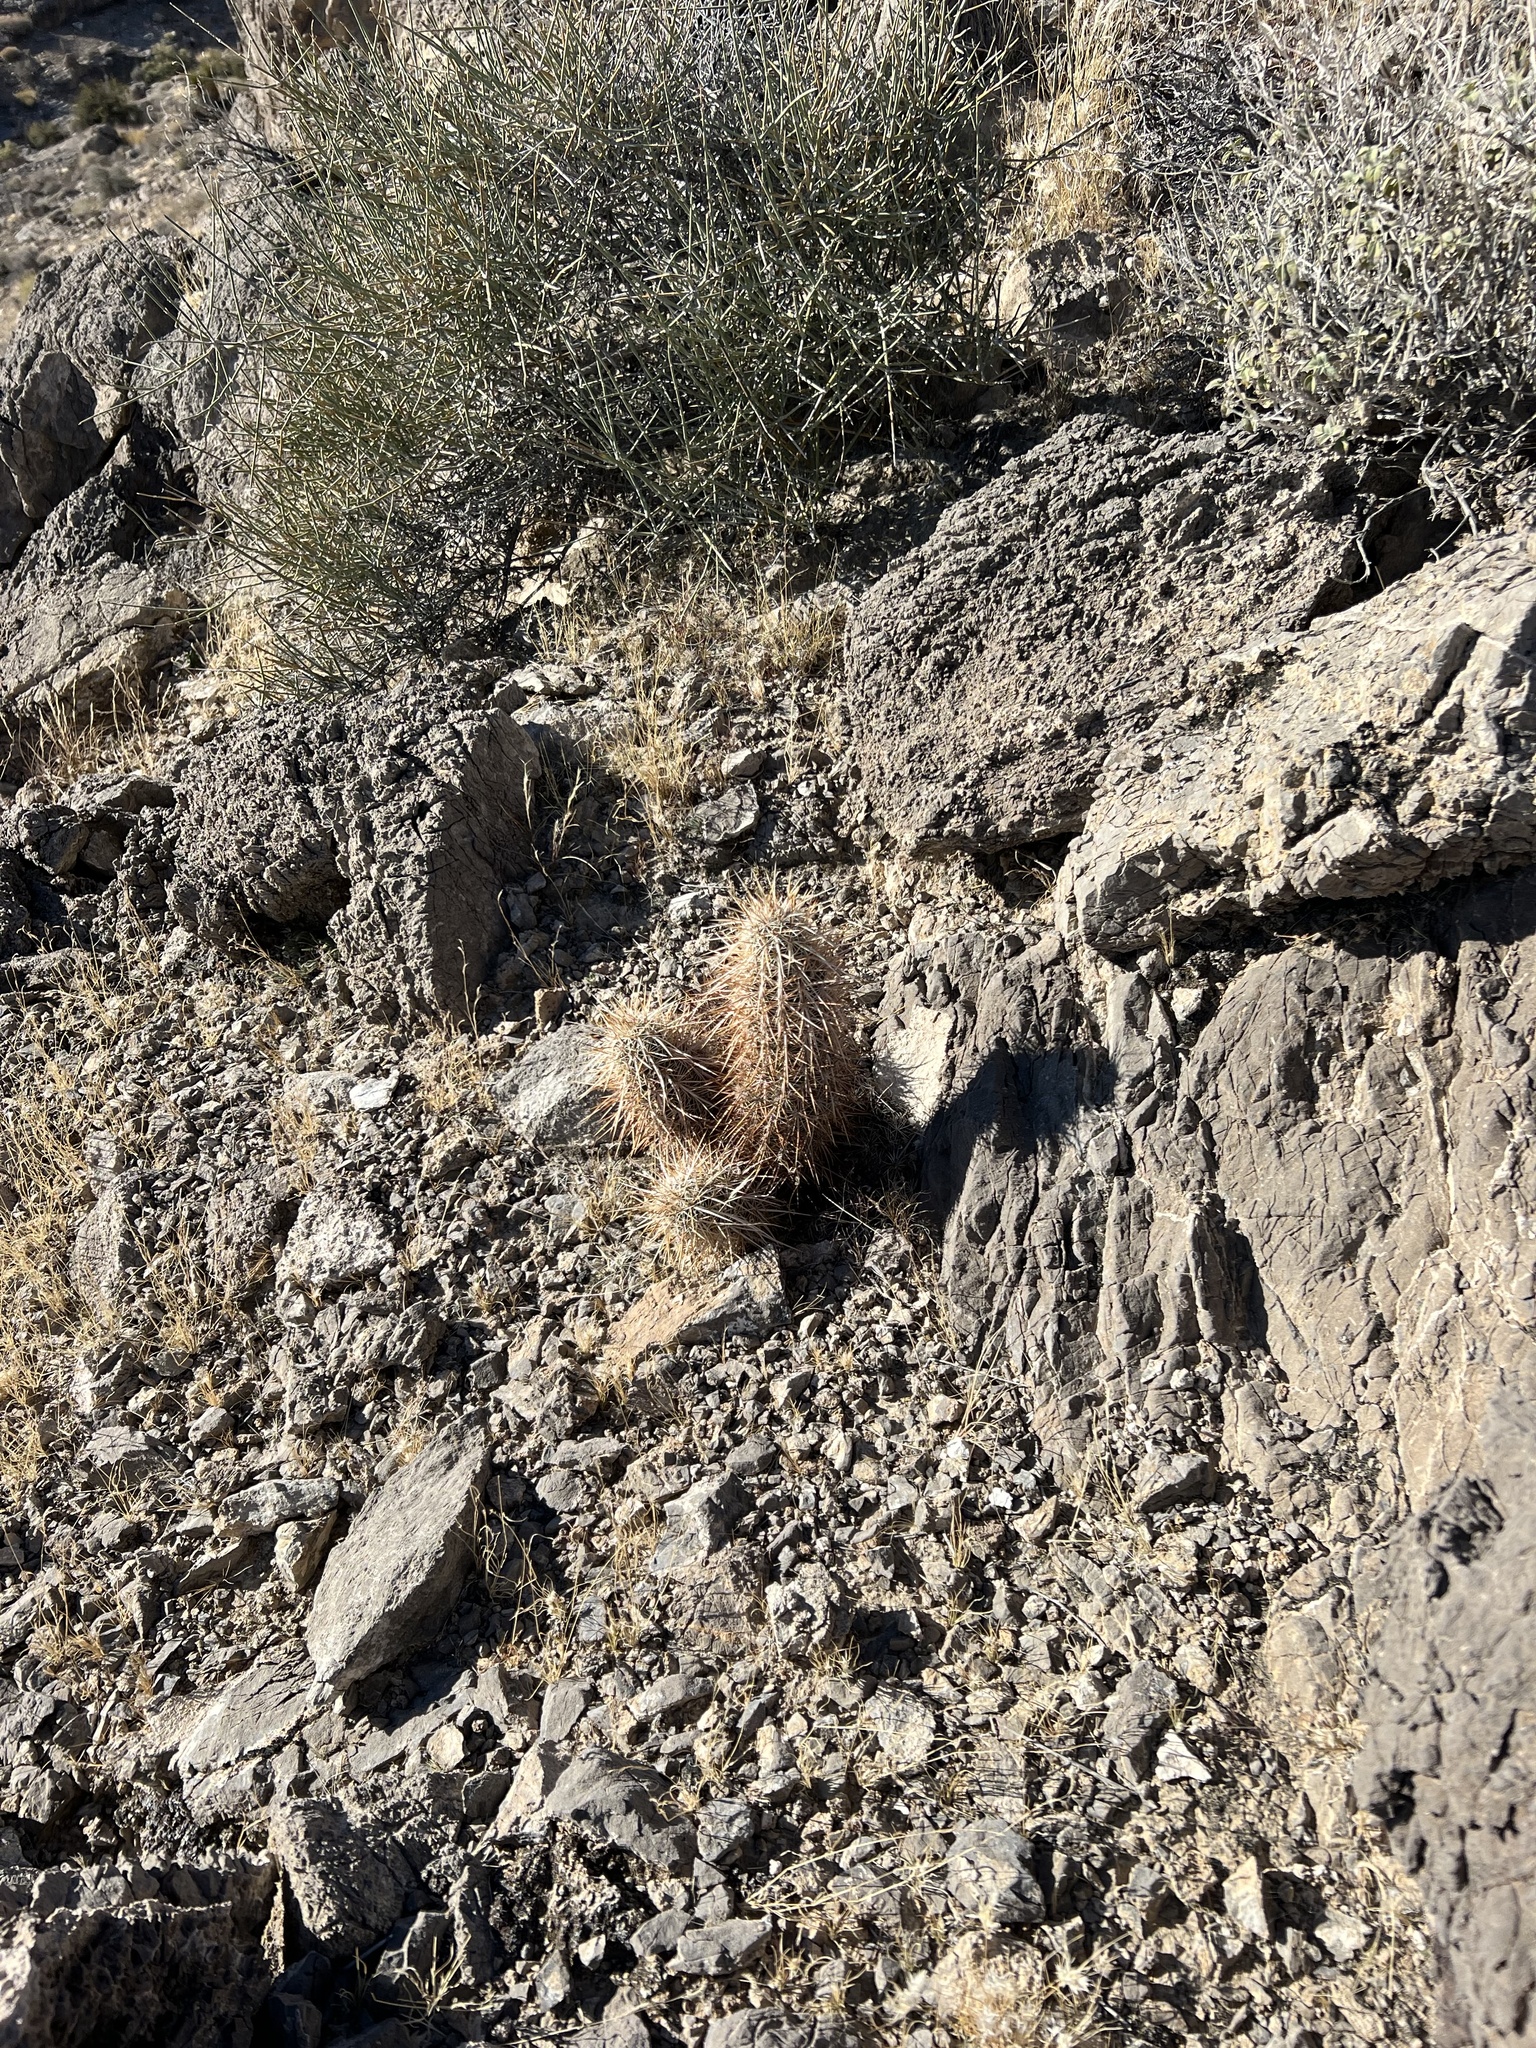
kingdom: Plantae
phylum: Tracheophyta
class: Magnoliopsida
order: Caryophyllales
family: Cactaceae
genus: Echinocereus
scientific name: Echinocereus engelmannii
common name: Engelmann's hedgehog cactus
